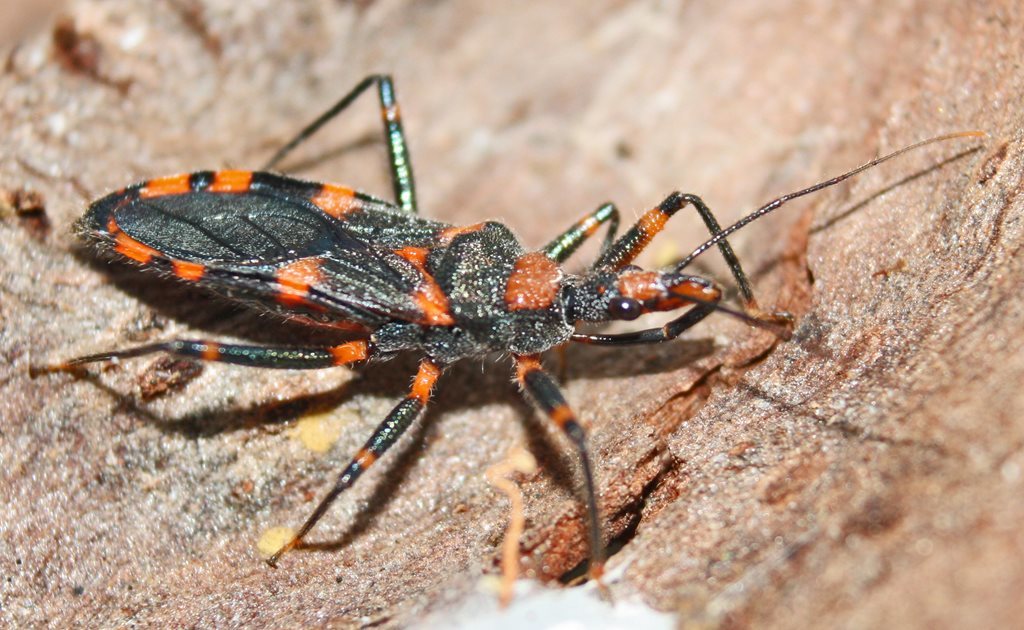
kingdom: Animalia
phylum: Arthropoda
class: Insecta
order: Hemiptera
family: Reduviidae
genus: Havinthus
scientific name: Havinthus rufovarius
